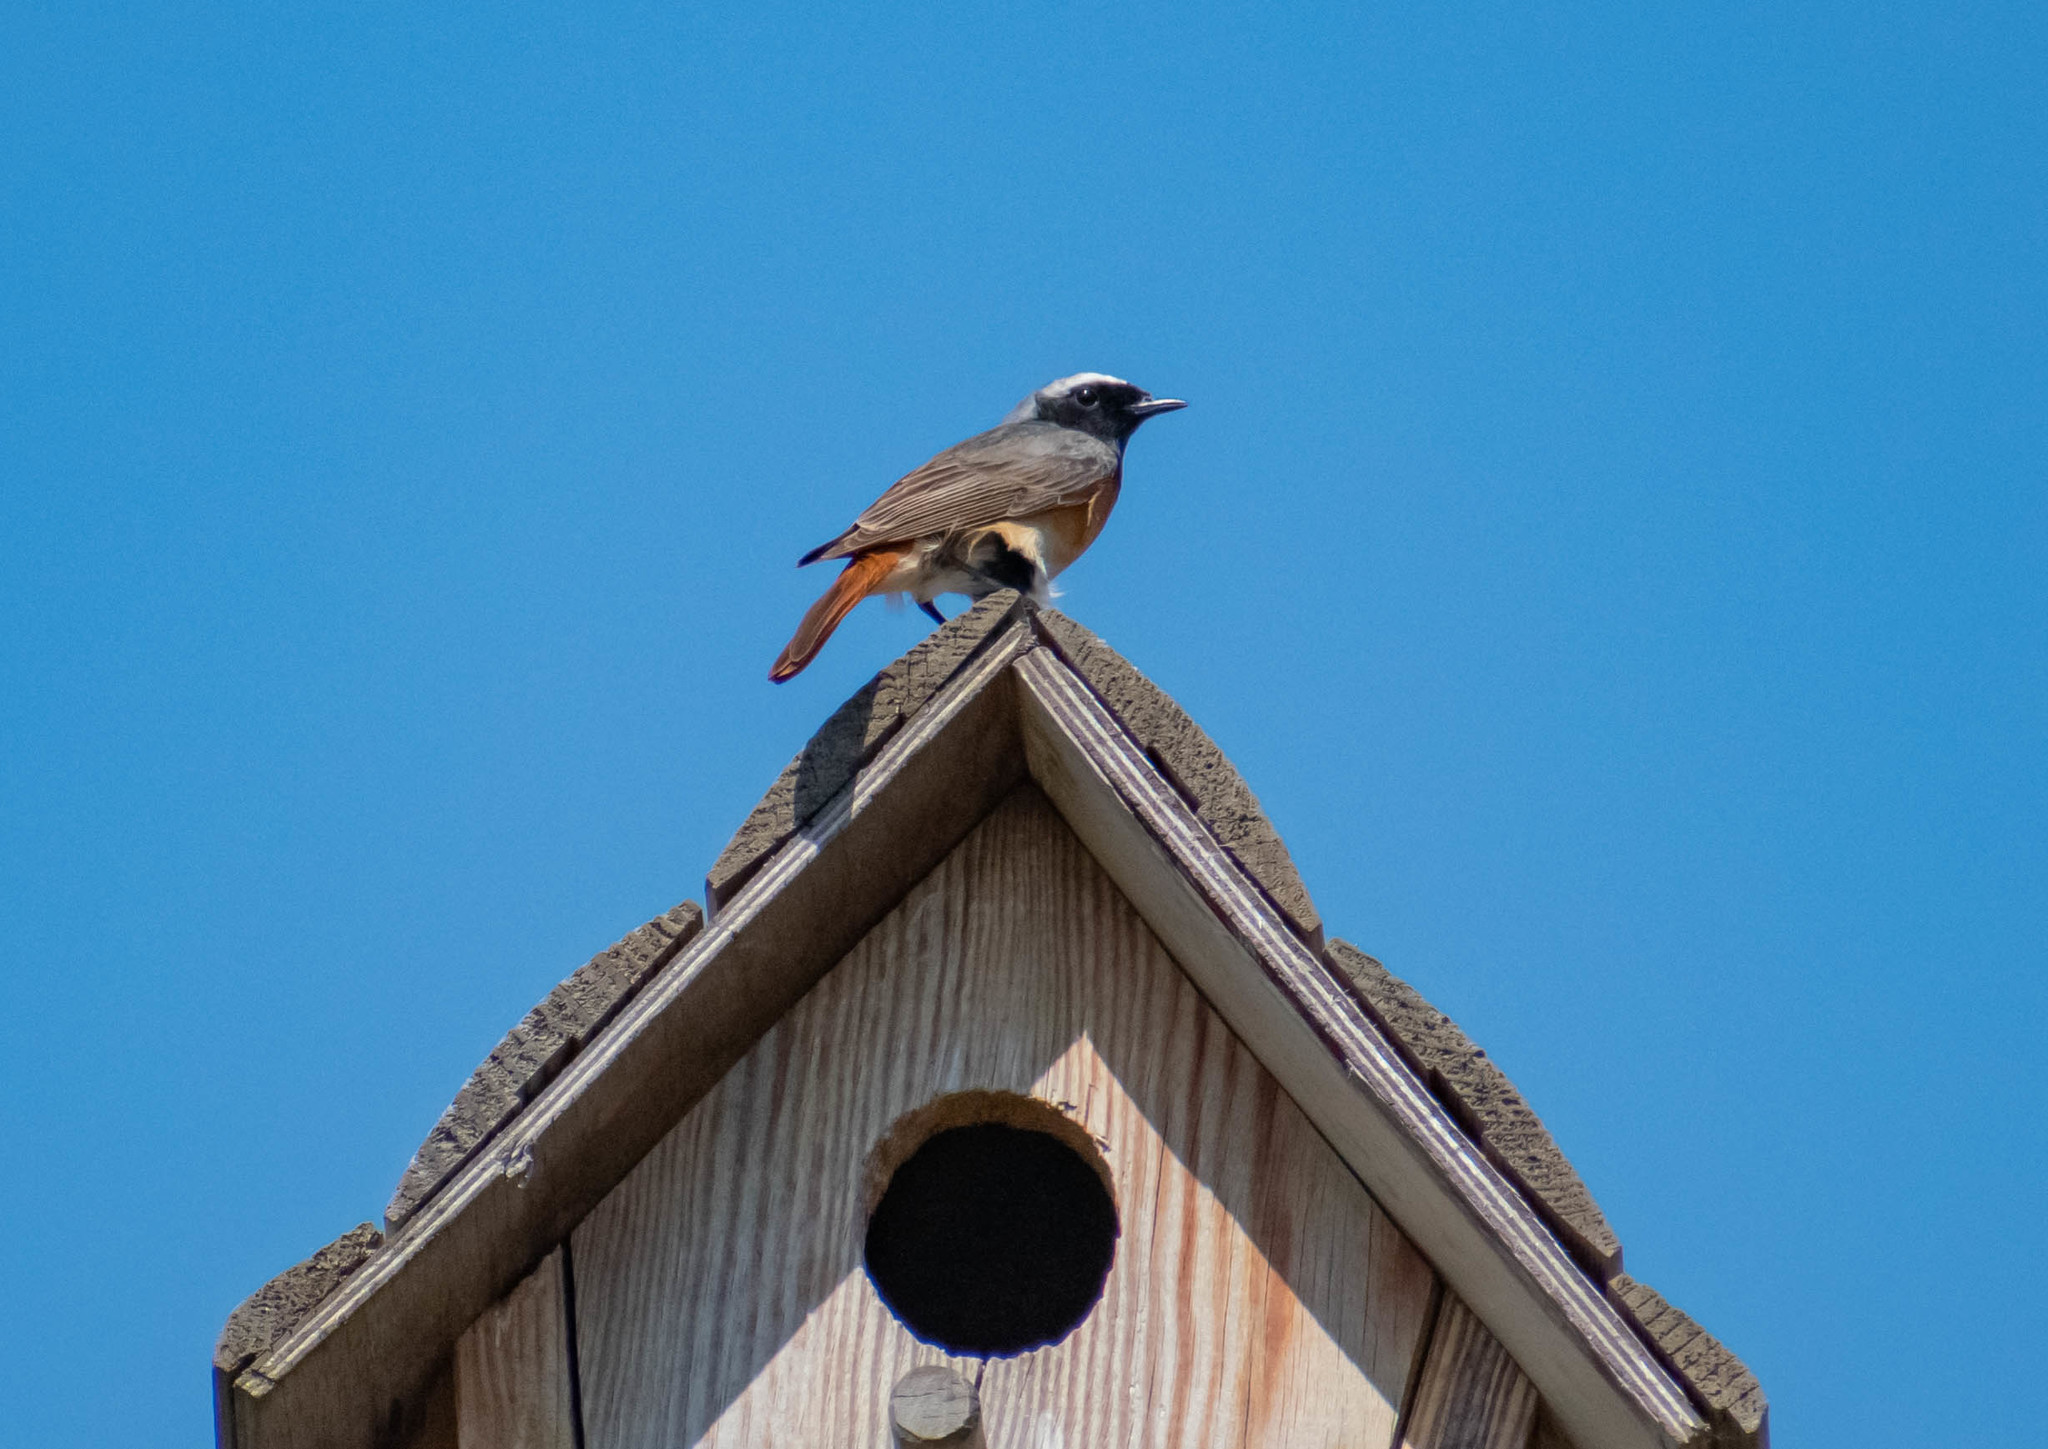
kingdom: Animalia
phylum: Chordata
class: Aves
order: Passeriformes
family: Muscicapidae
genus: Phoenicurus
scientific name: Phoenicurus phoenicurus
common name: Common redstart
